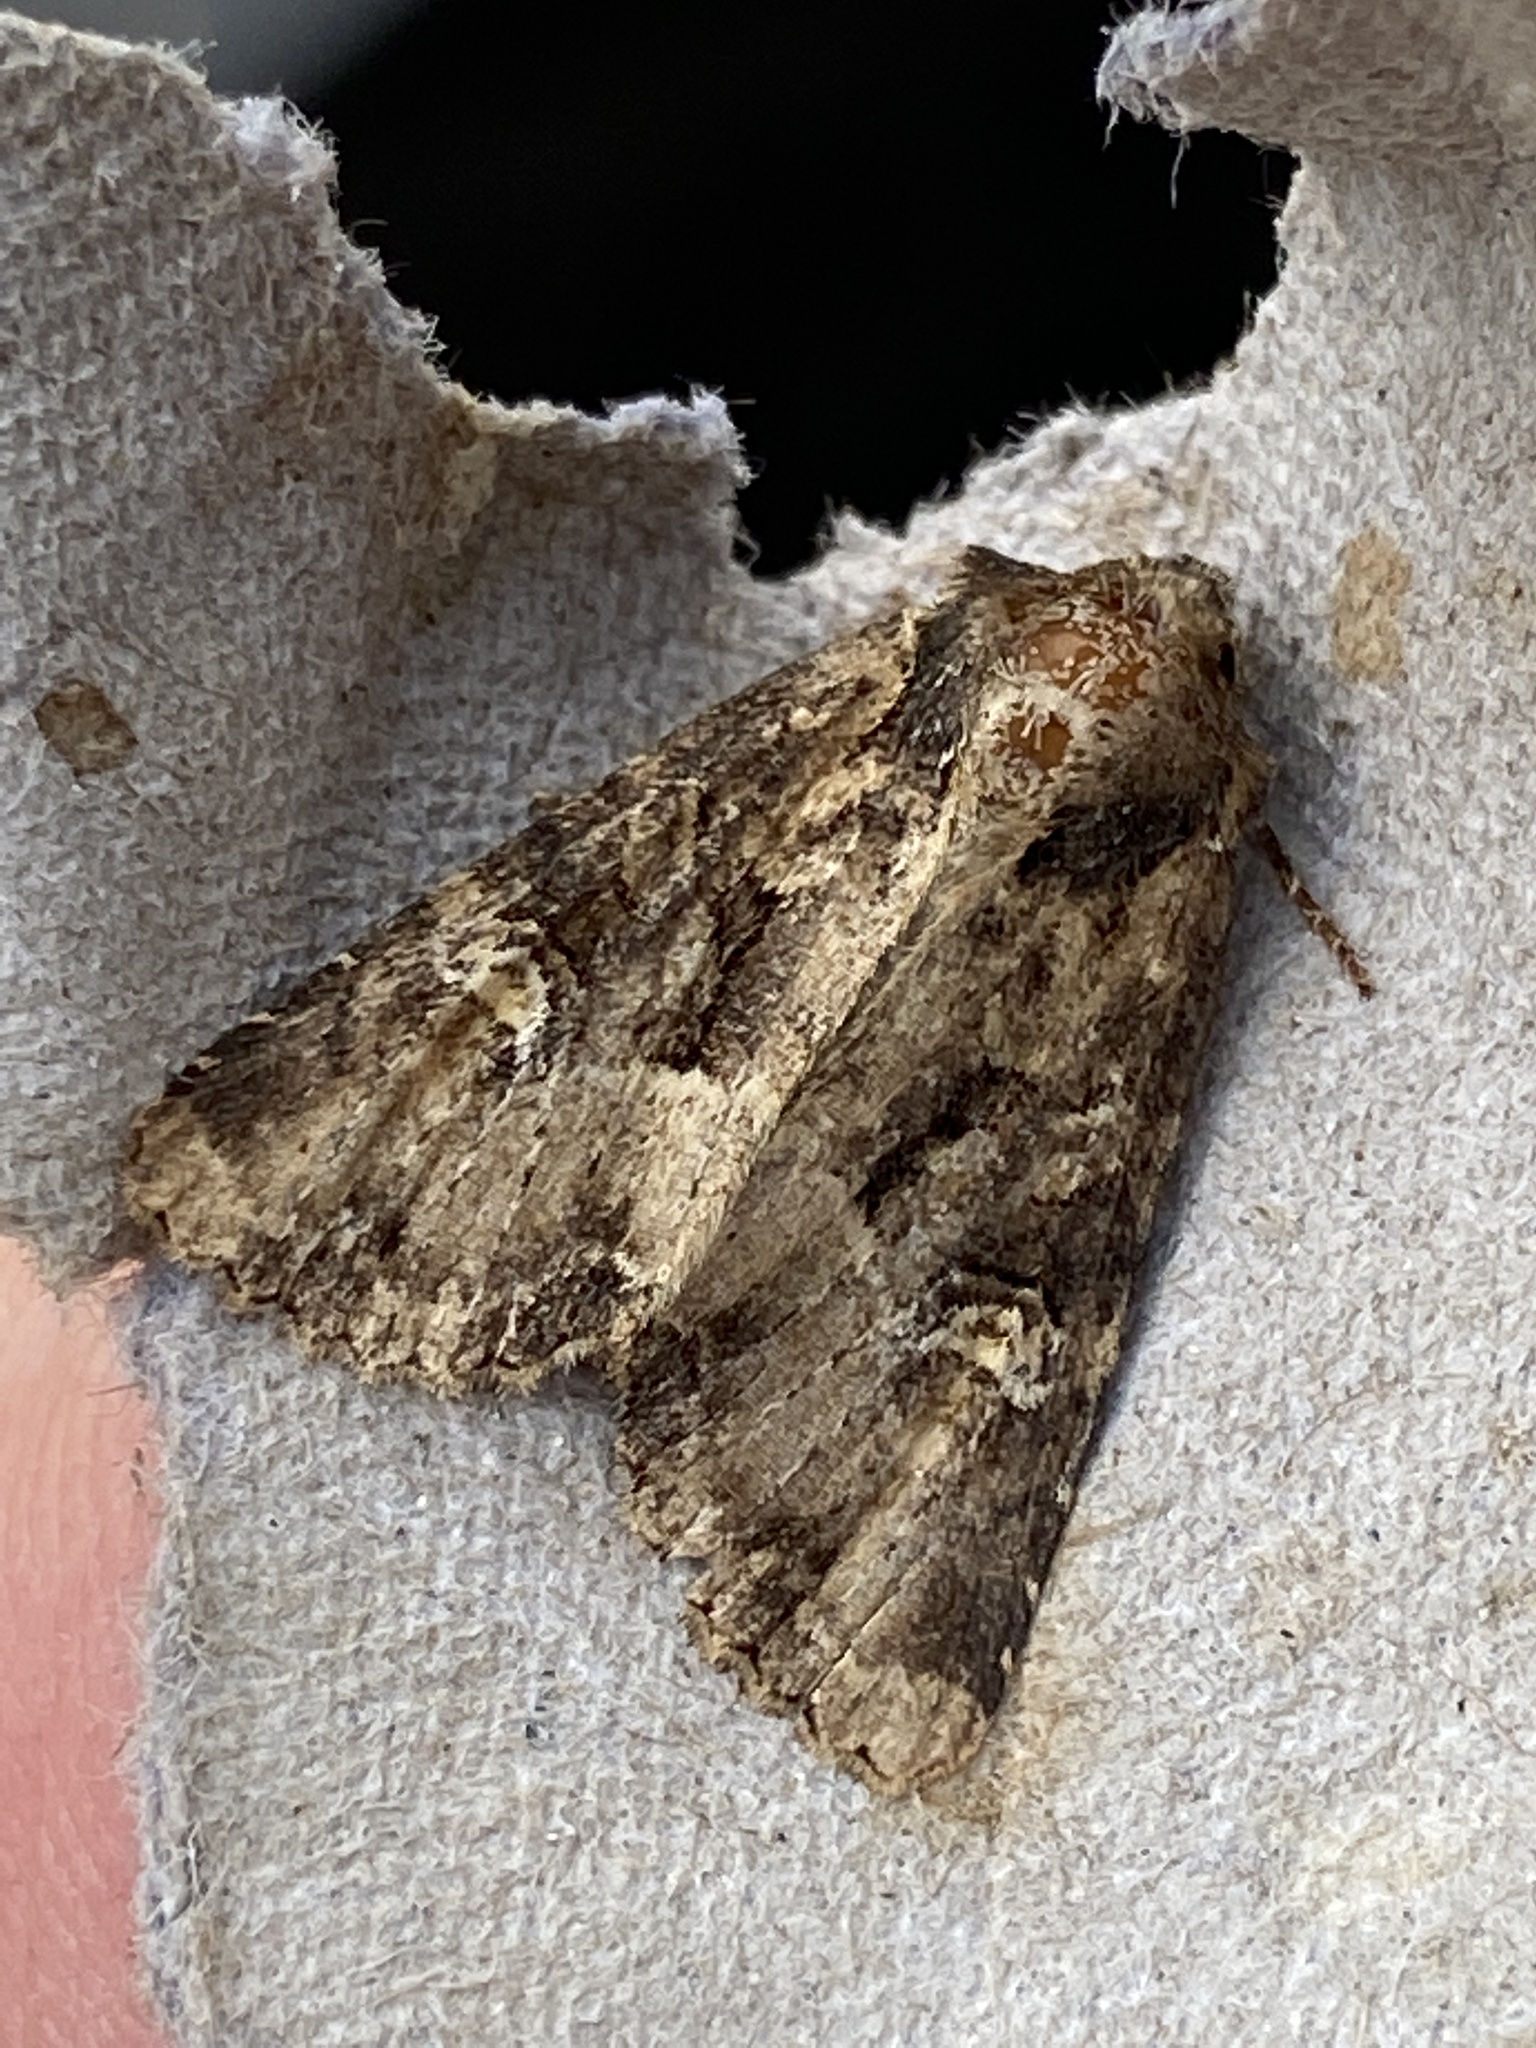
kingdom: Animalia
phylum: Arthropoda
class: Insecta
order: Lepidoptera
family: Noctuidae
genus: Mesapamea
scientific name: Mesapamea
